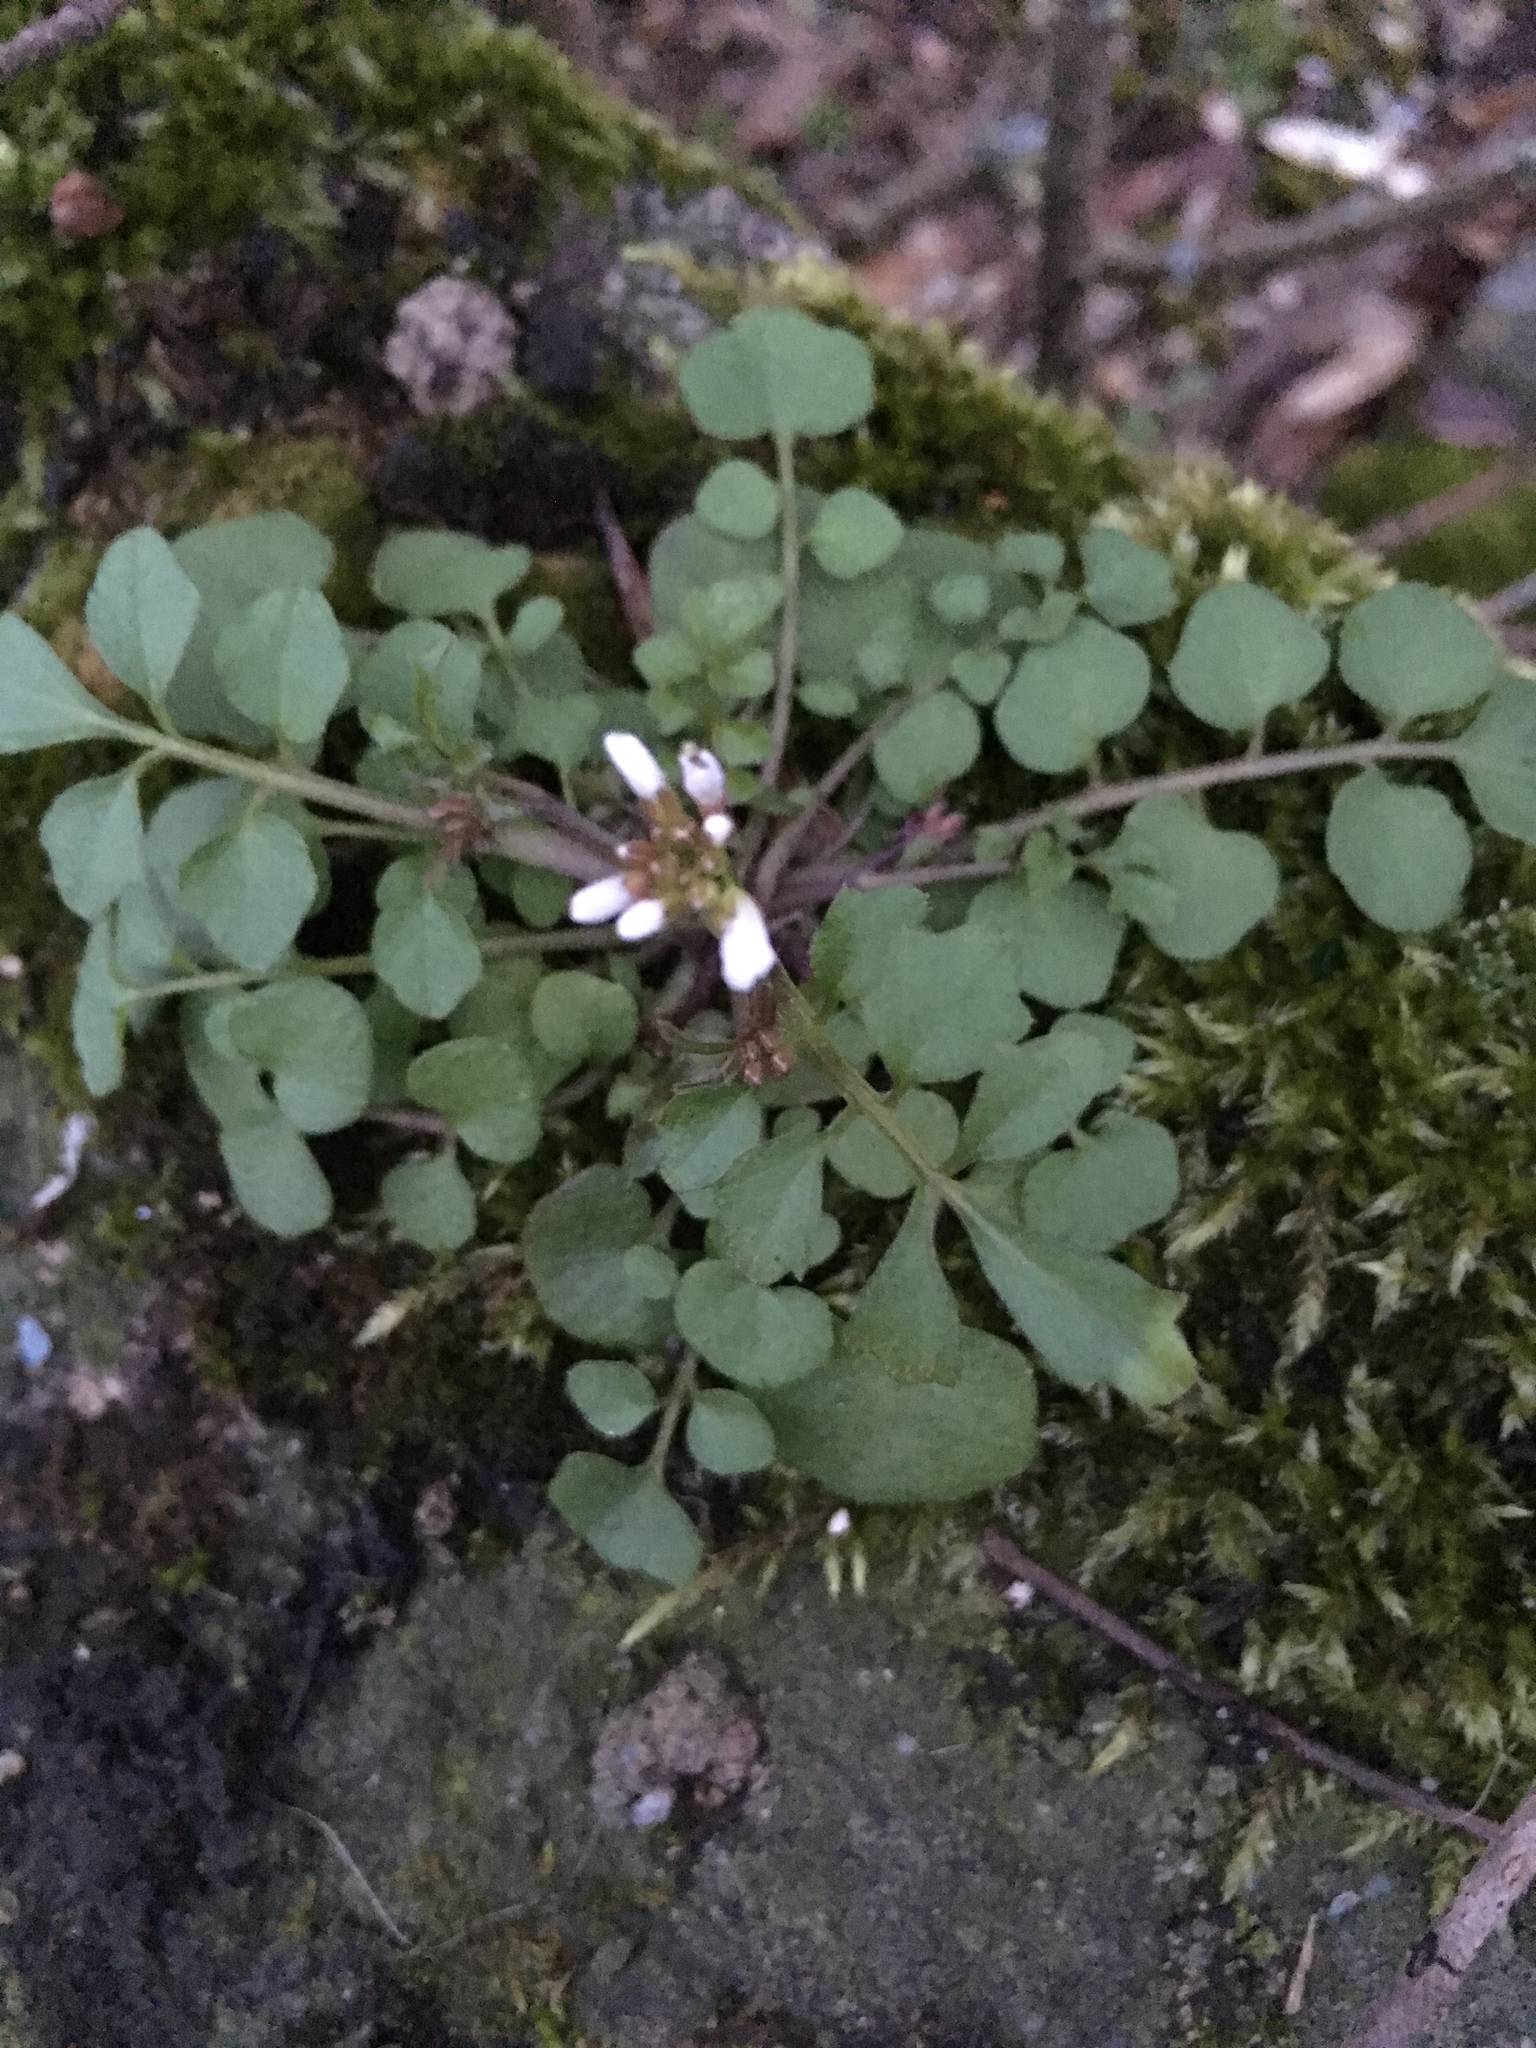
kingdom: Plantae
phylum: Tracheophyta
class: Magnoliopsida
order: Brassicales
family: Brassicaceae
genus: Cardamine
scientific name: Cardamine hirsuta
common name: Hairy bittercress
